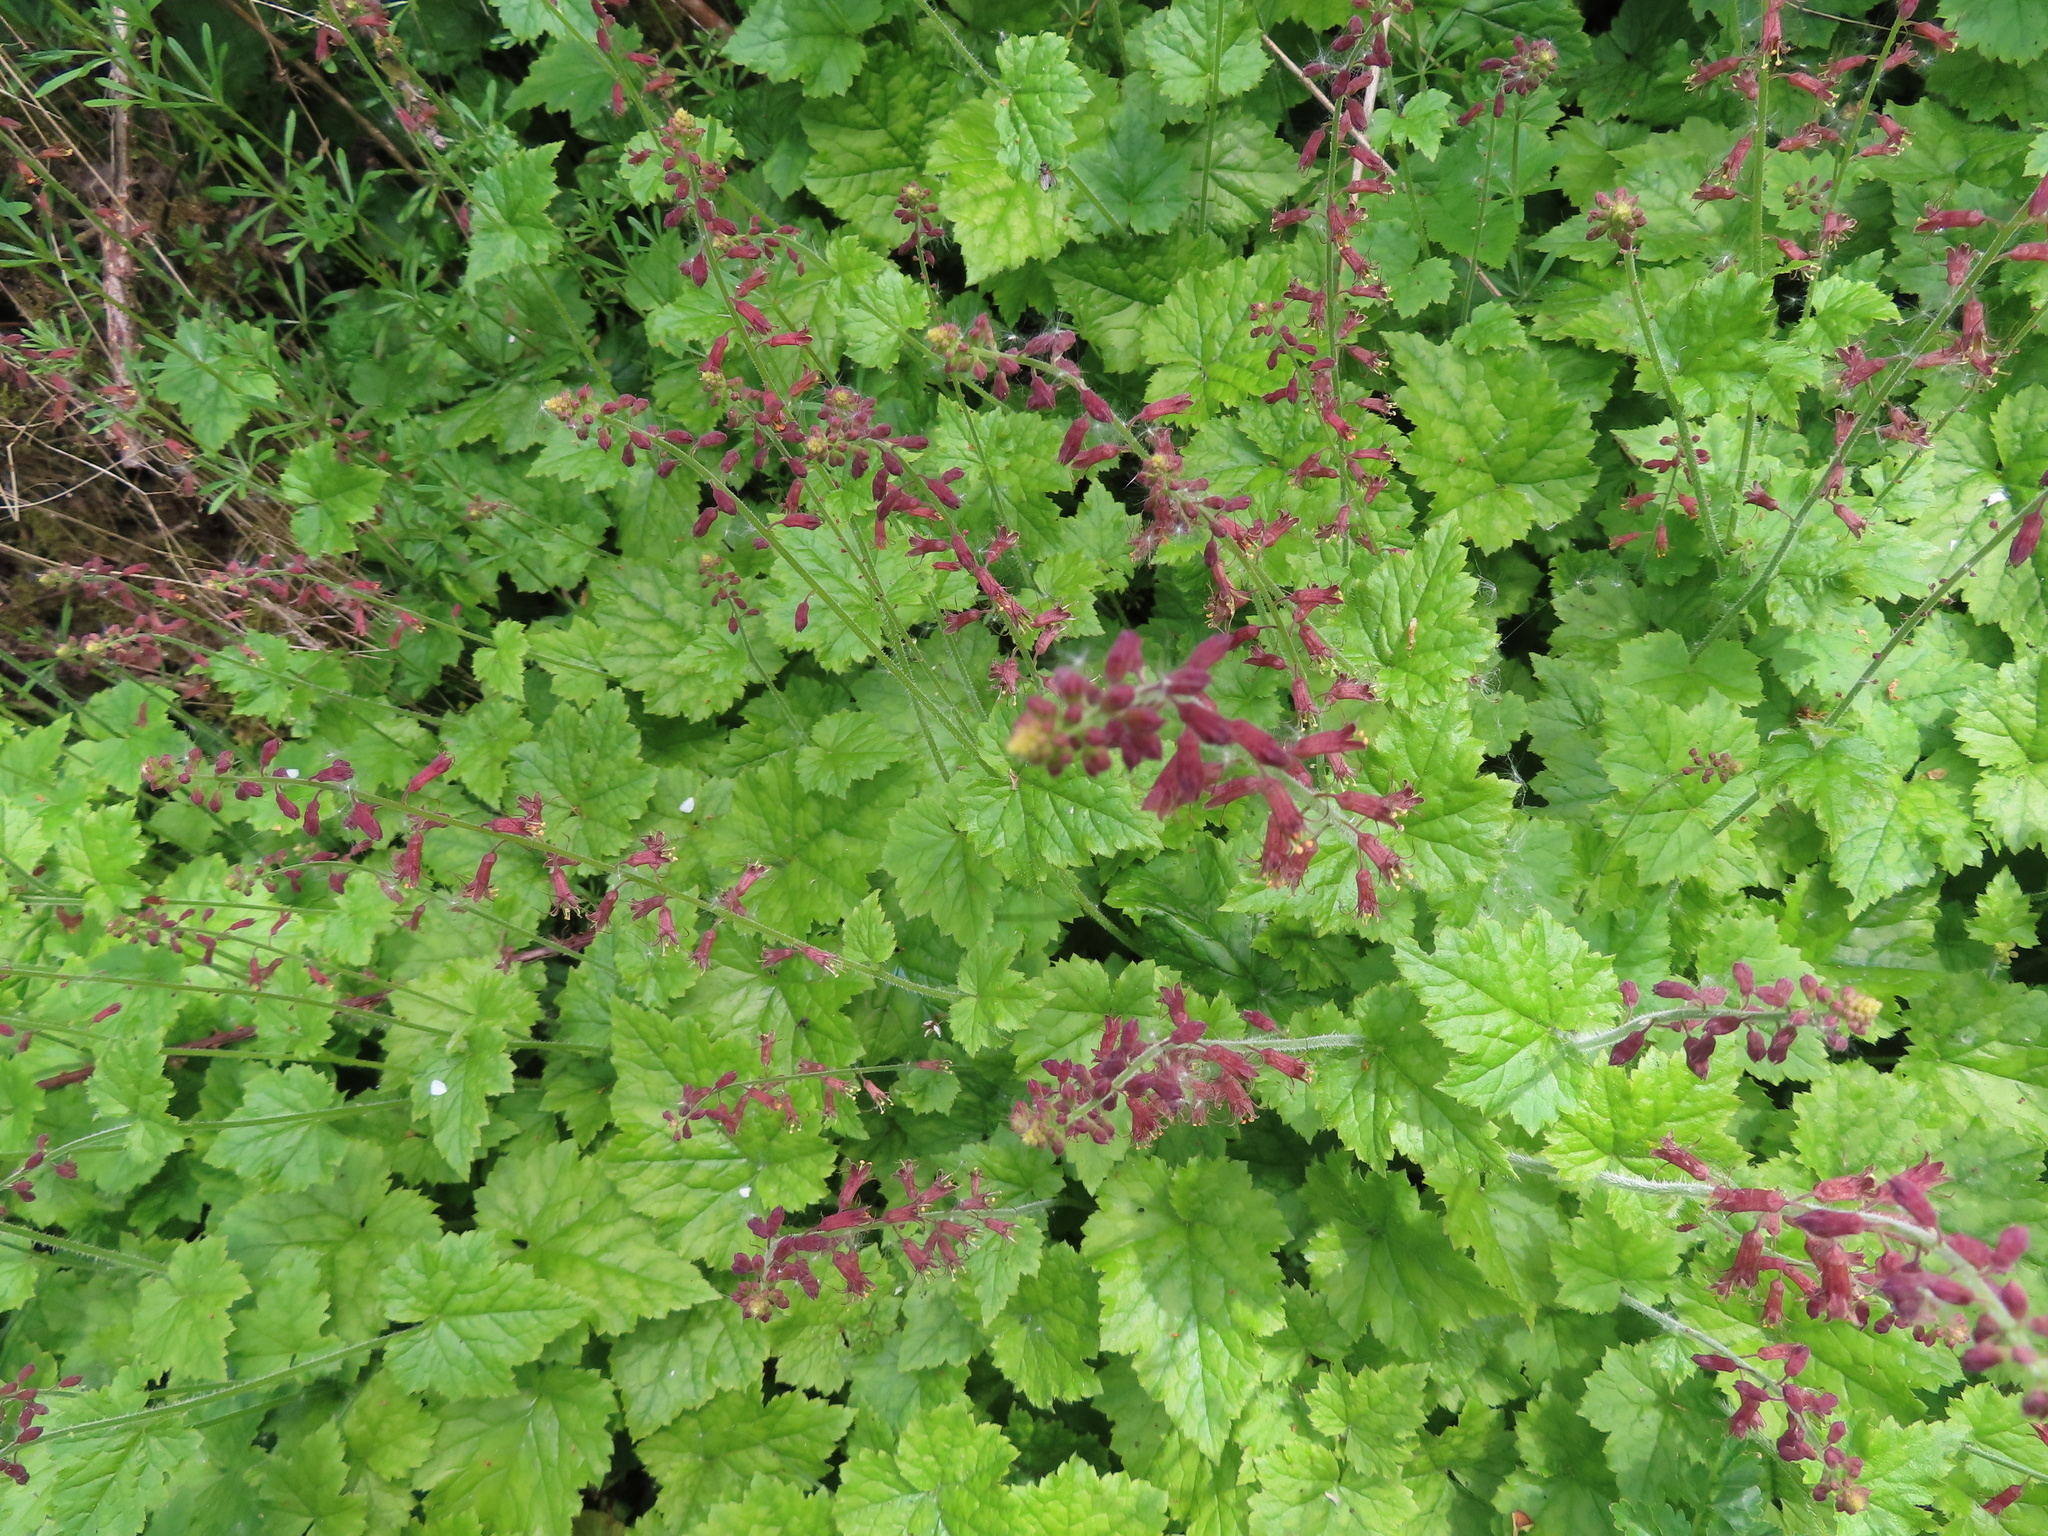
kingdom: Plantae
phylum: Tracheophyta
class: Magnoliopsida
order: Saxifragales
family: Saxifragaceae
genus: Tolmiea
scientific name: Tolmiea menziesii
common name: Pick-a-back-plant
